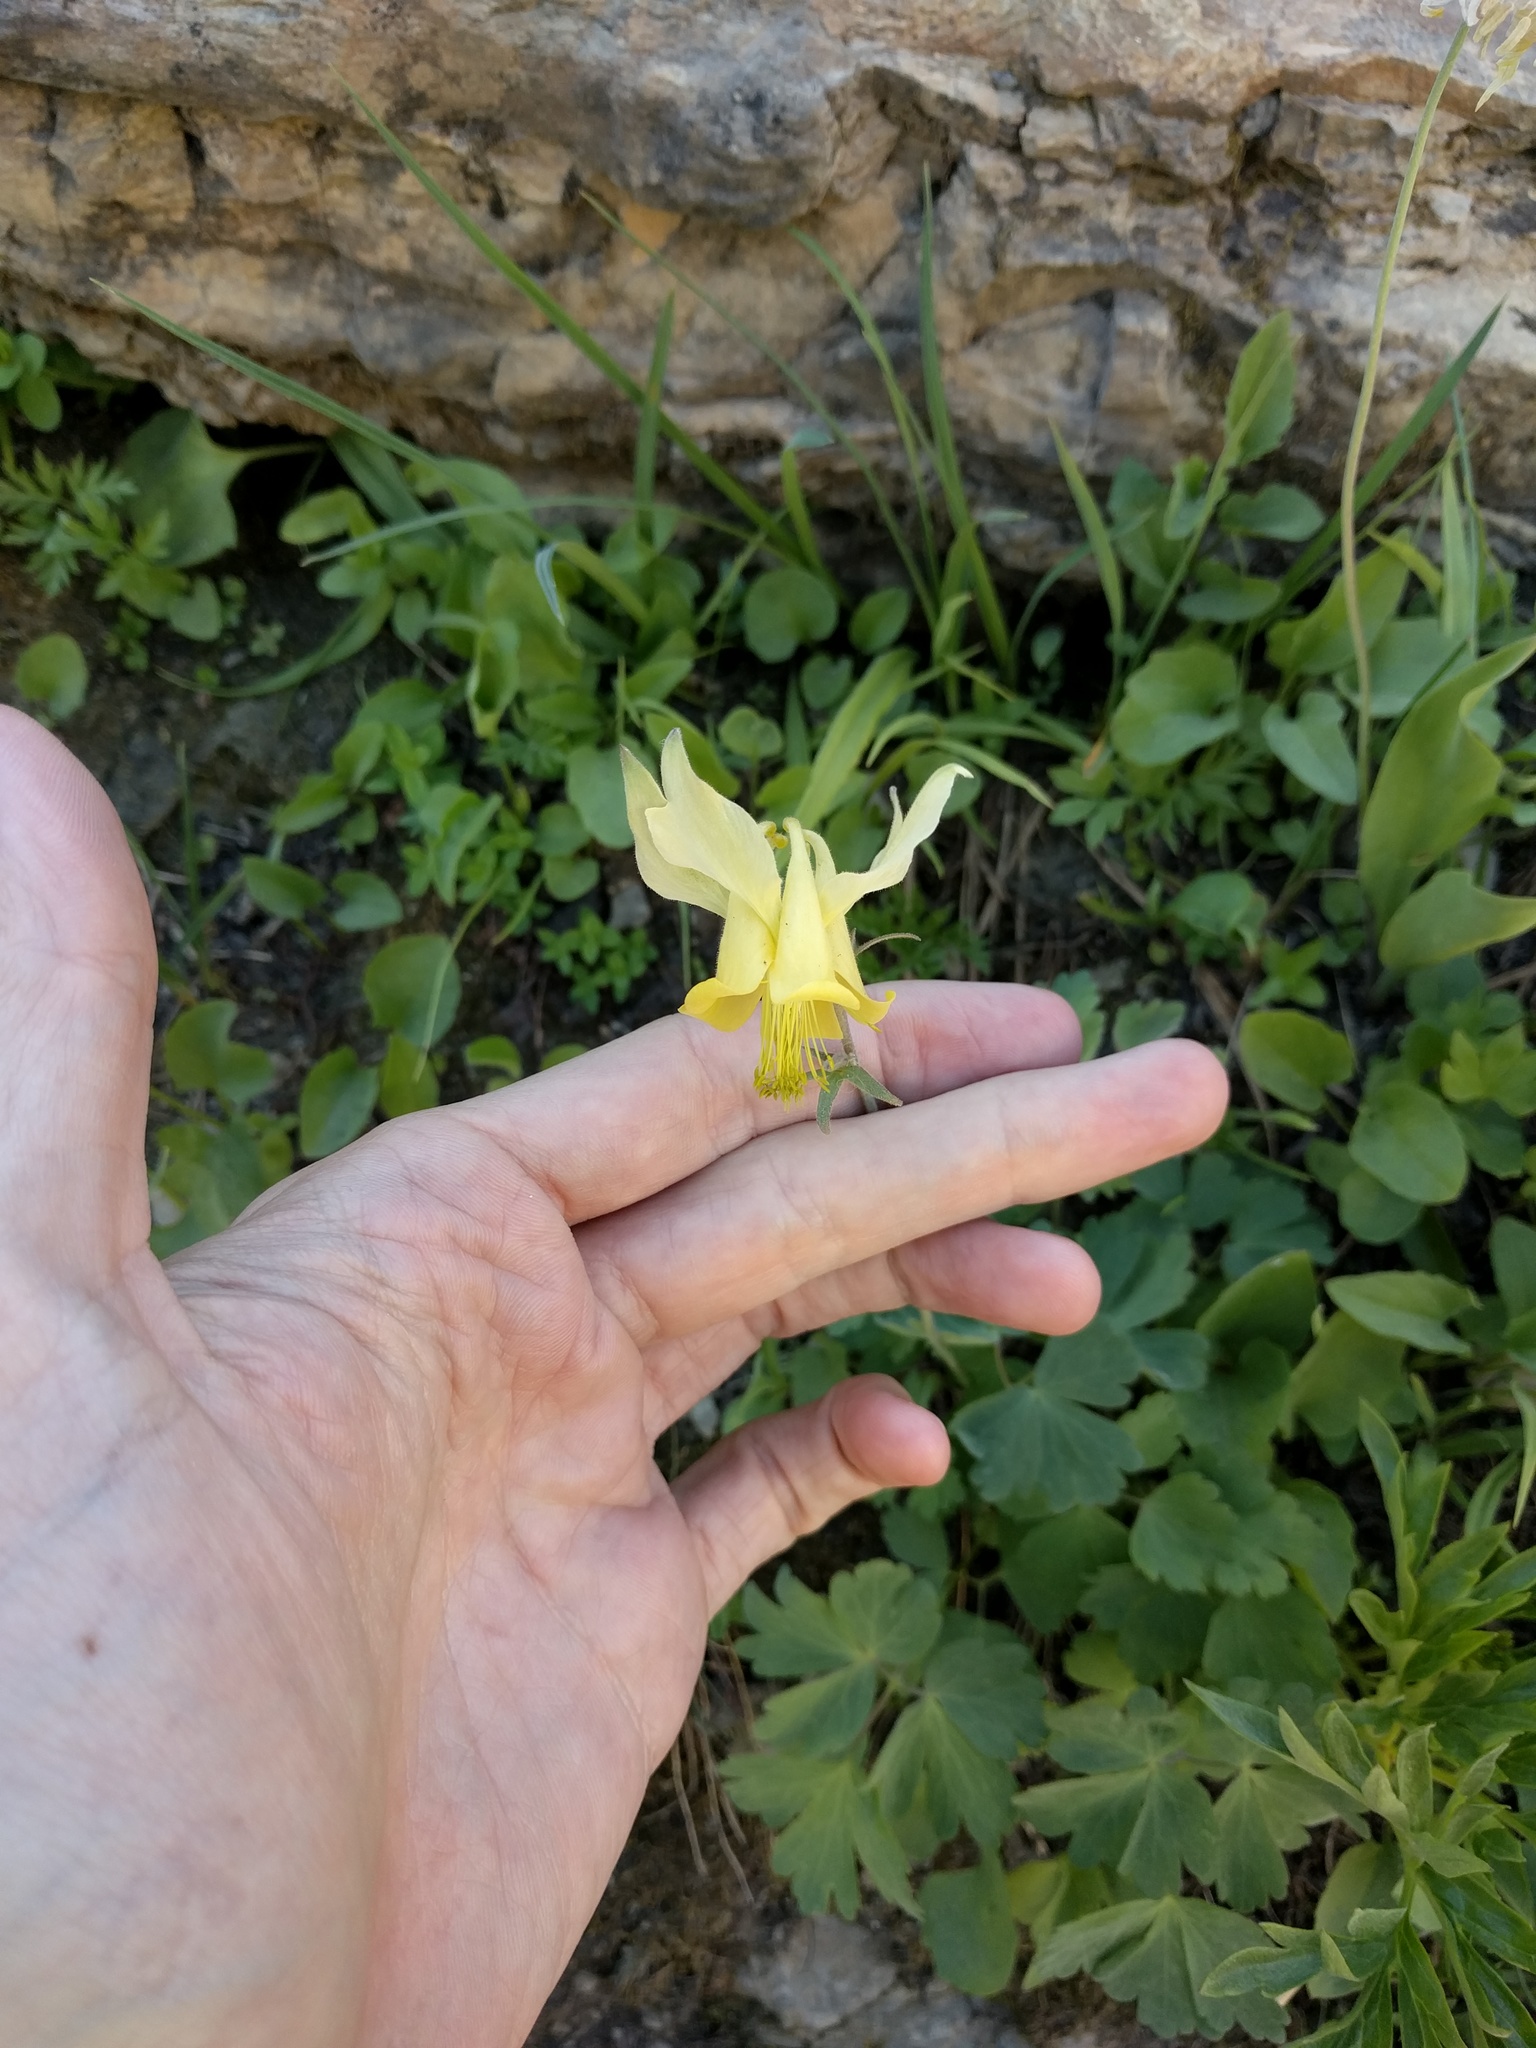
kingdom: Plantae
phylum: Tracheophyta
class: Magnoliopsida
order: Ranunculales
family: Ranunculaceae
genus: Aquilegia
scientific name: Aquilegia flavescens
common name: Yellow columbine
